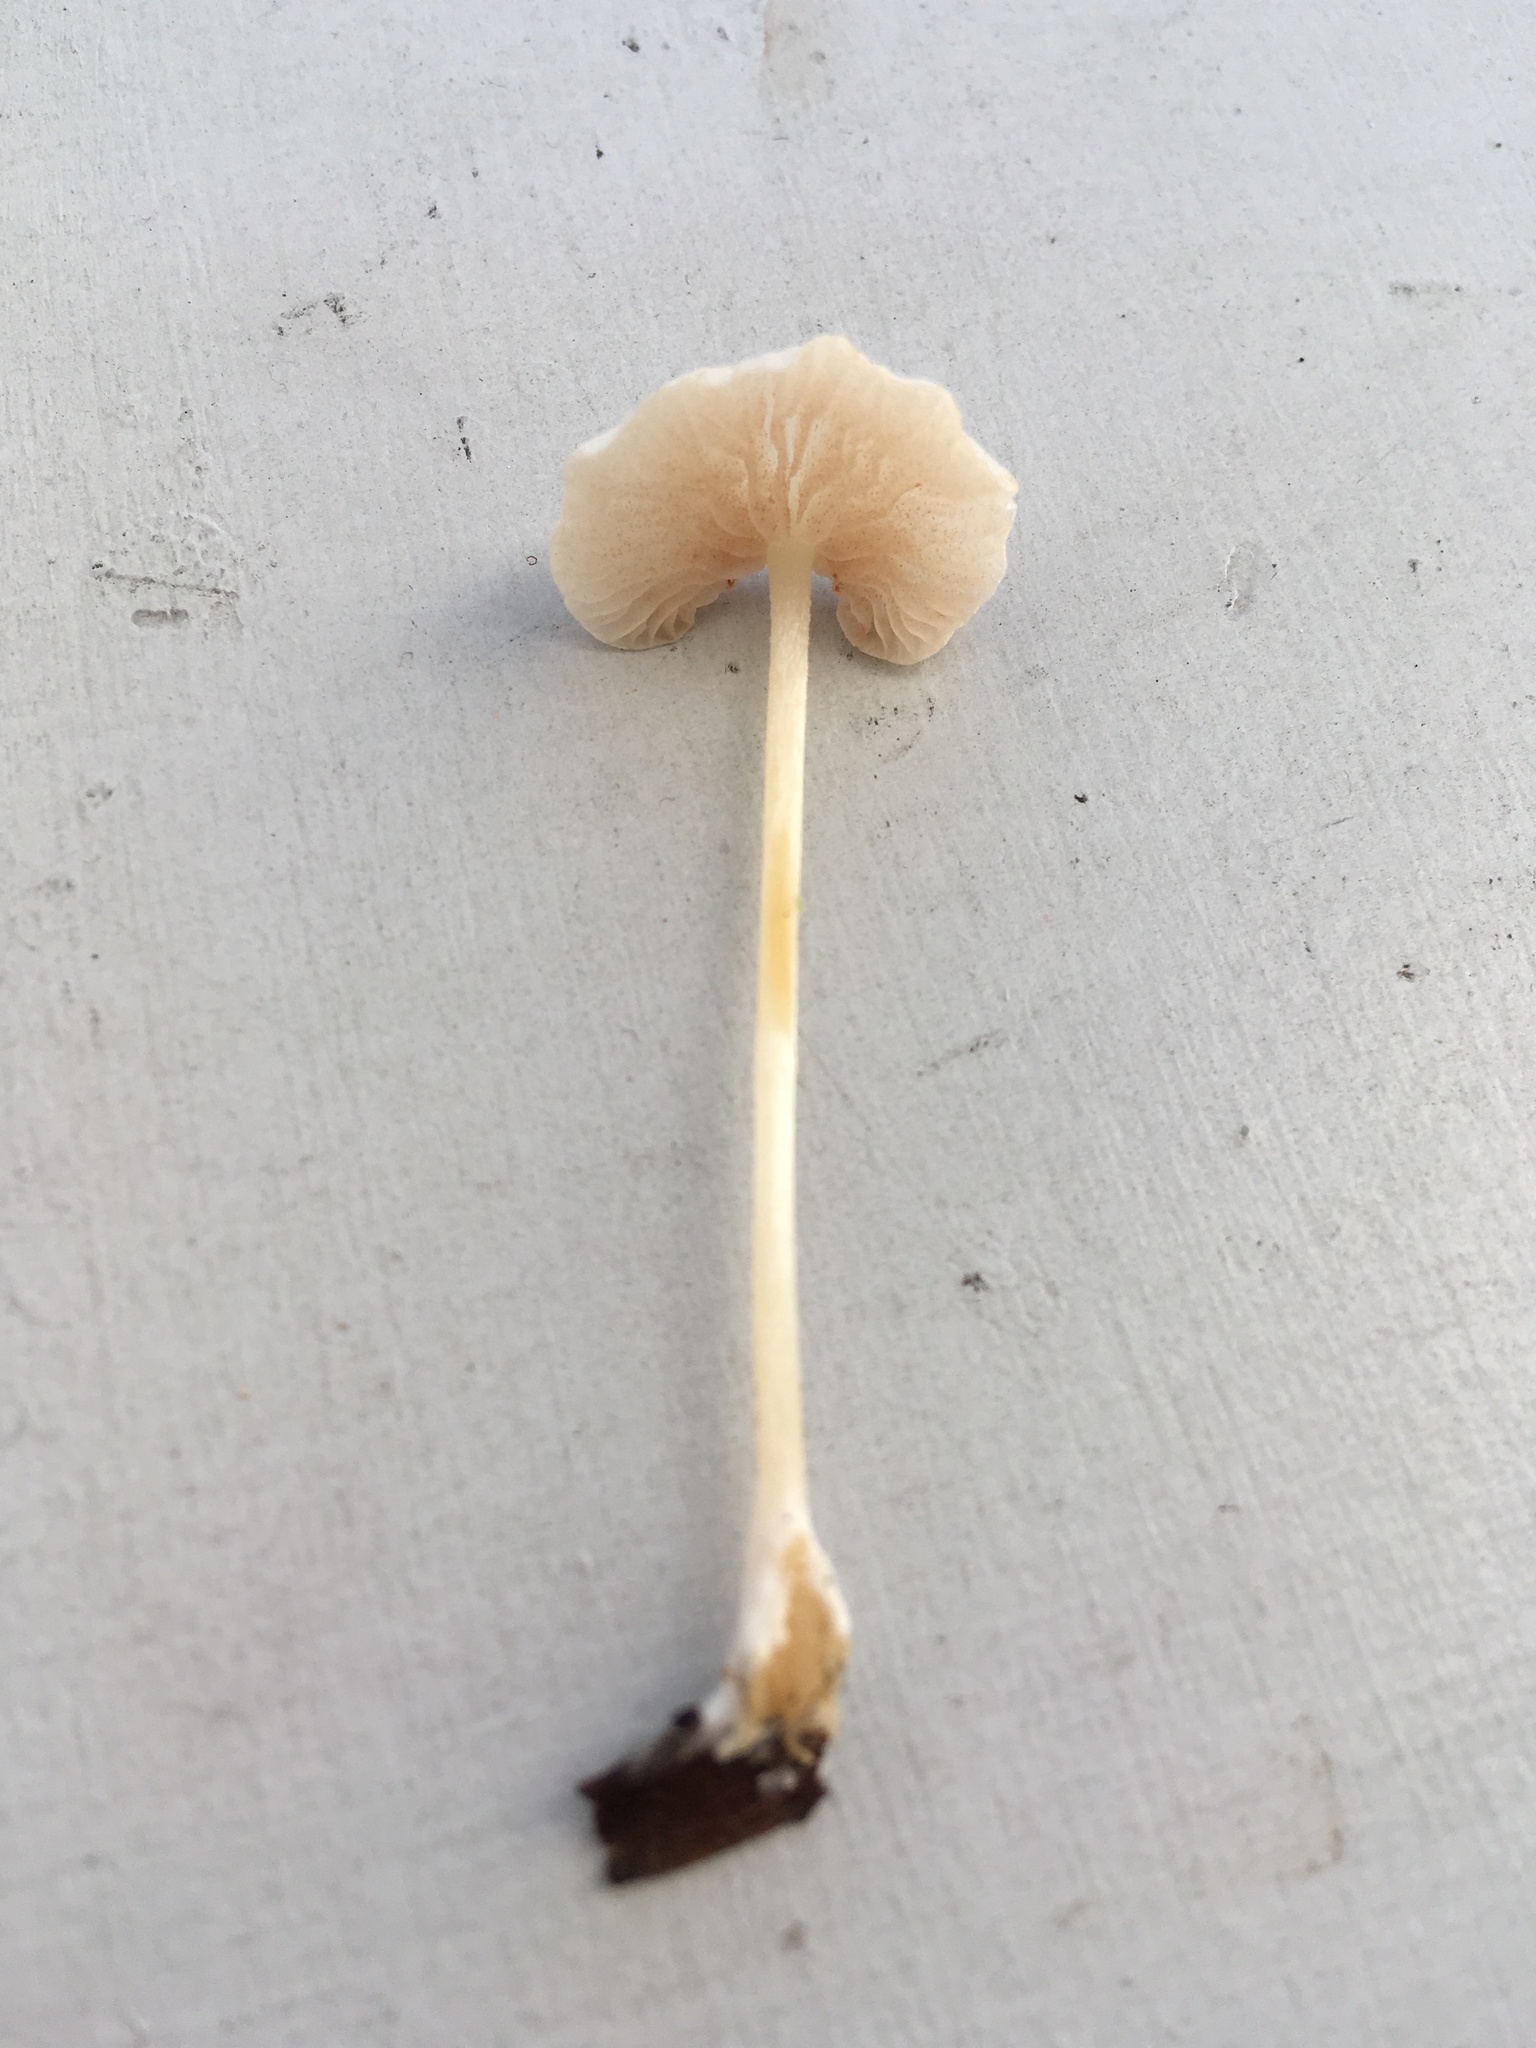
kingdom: Fungi
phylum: Basidiomycota
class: Agaricomycetes
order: Agaricales
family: Entolomataceae
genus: Entoloma
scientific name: Entoloma albinellum
